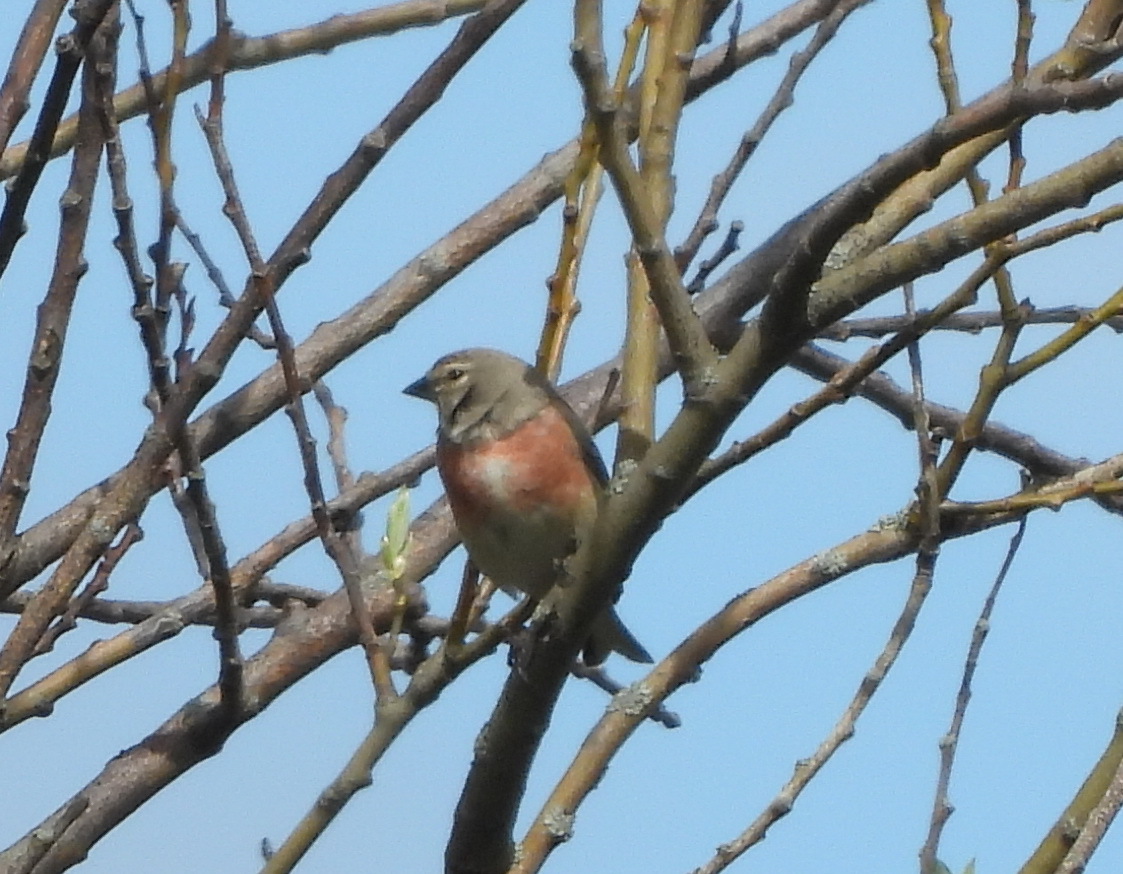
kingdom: Animalia
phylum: Chordata
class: Aves
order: Passeriformes
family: Fringillidae
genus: Linaria
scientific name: Linaria cannabina
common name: Common linnet
